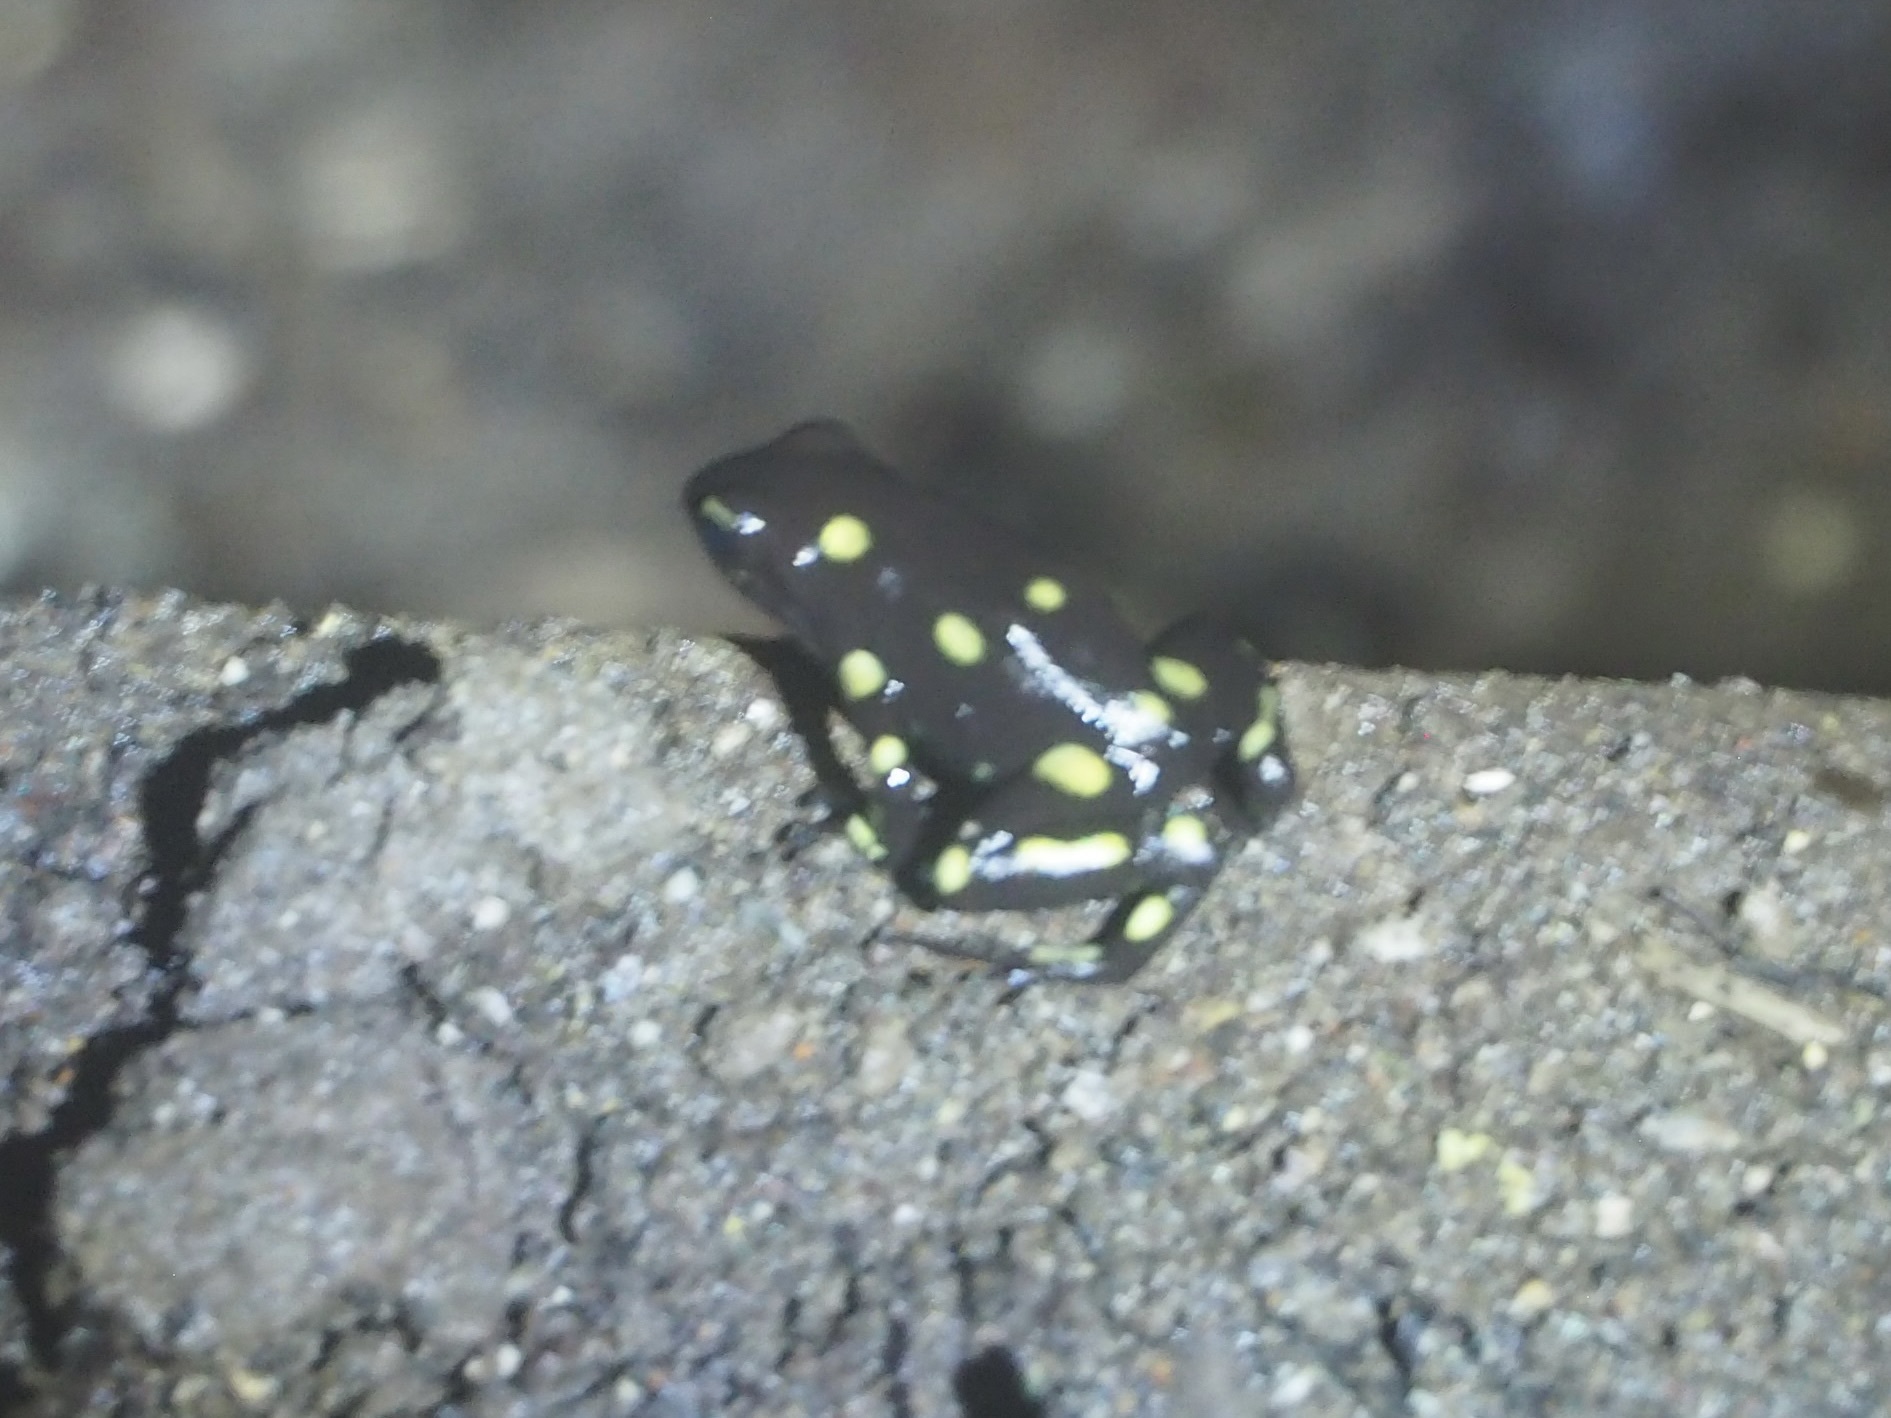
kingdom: Animalia
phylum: Chordata
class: Amphibia
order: Anura
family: Dendrobatidae
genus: Dendrobates
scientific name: Dendrobates auratus
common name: Green and black poison dart frog
